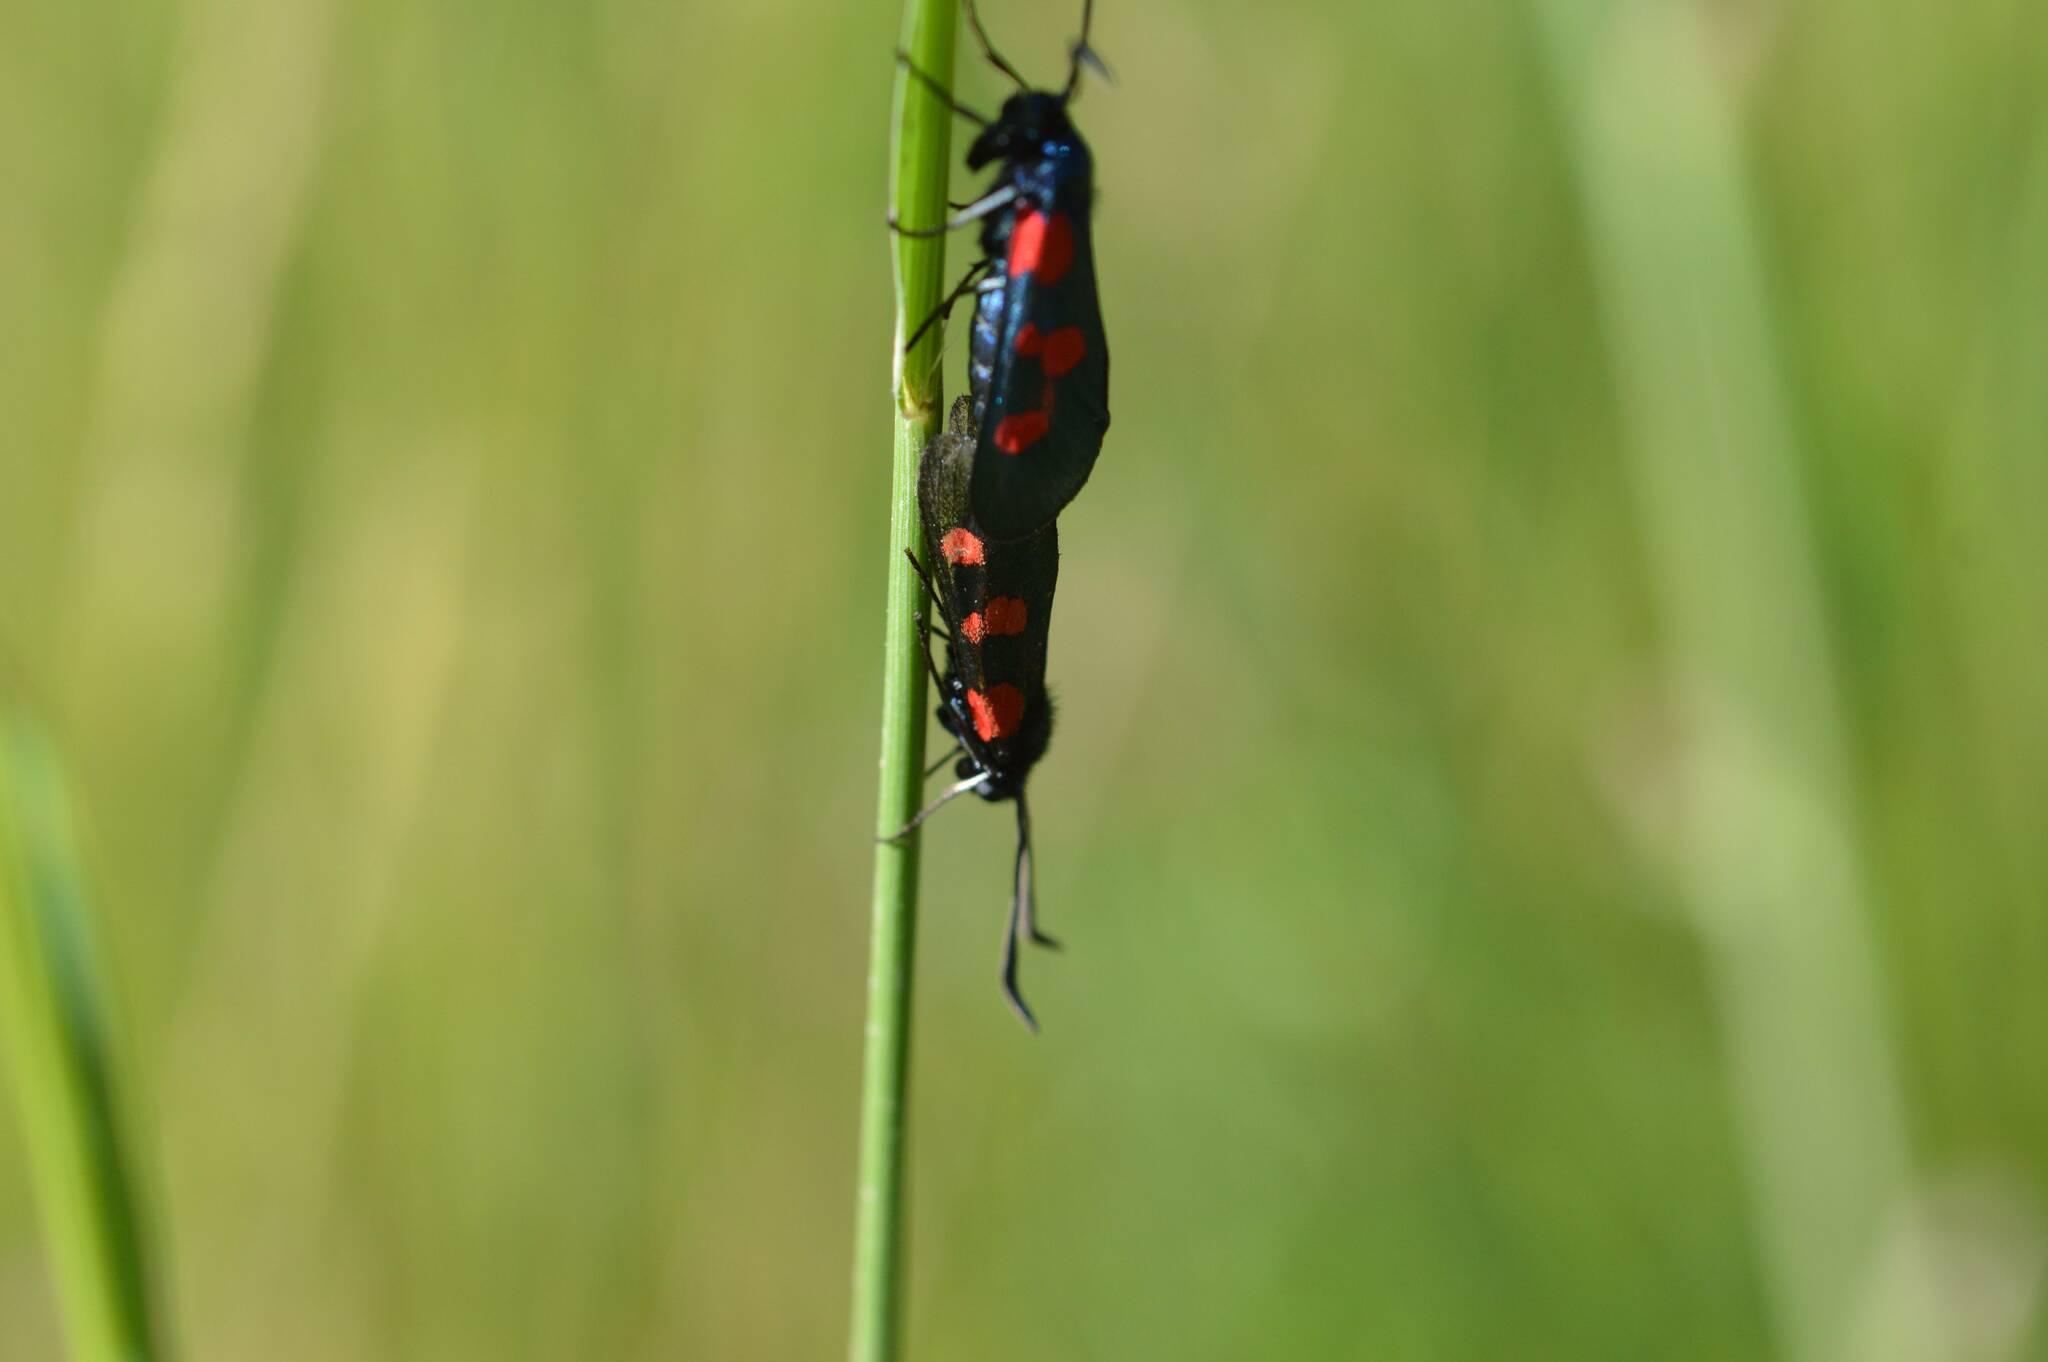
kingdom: Animalia
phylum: Arthropoda
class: Insecta
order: Lepidoptera
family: Zygaenidae
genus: Zygaena
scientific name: Zygaena trifolii
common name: Five-spot burnet
